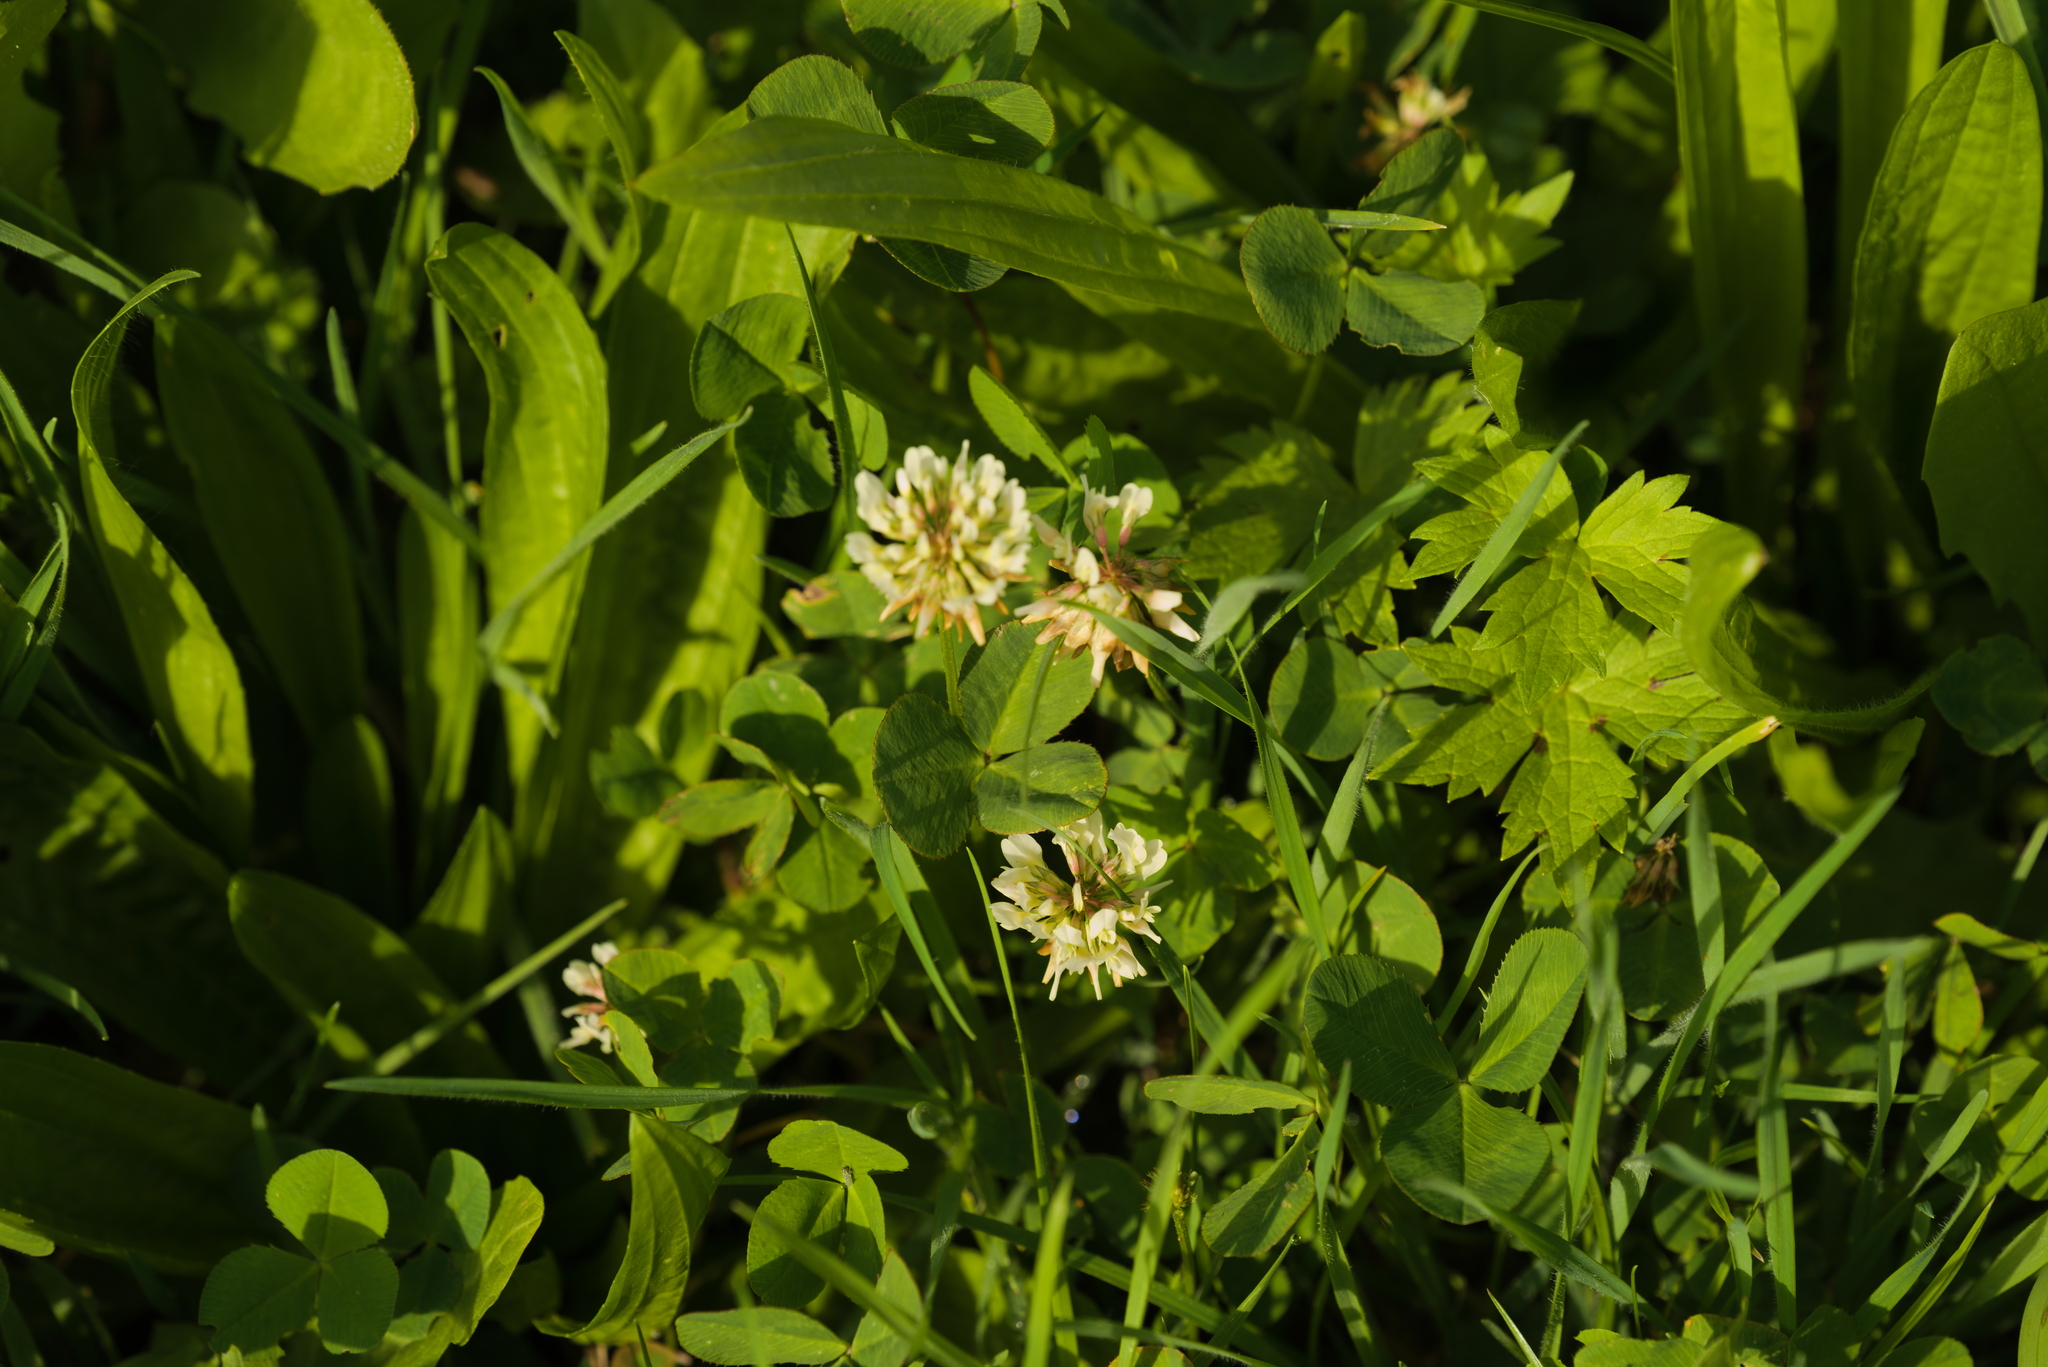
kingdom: Plantae
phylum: Tracheophyta
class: Magnoliopsida
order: Fabales
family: Fabaceae
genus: Trifolium
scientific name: Trifolium repens
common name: White clover
